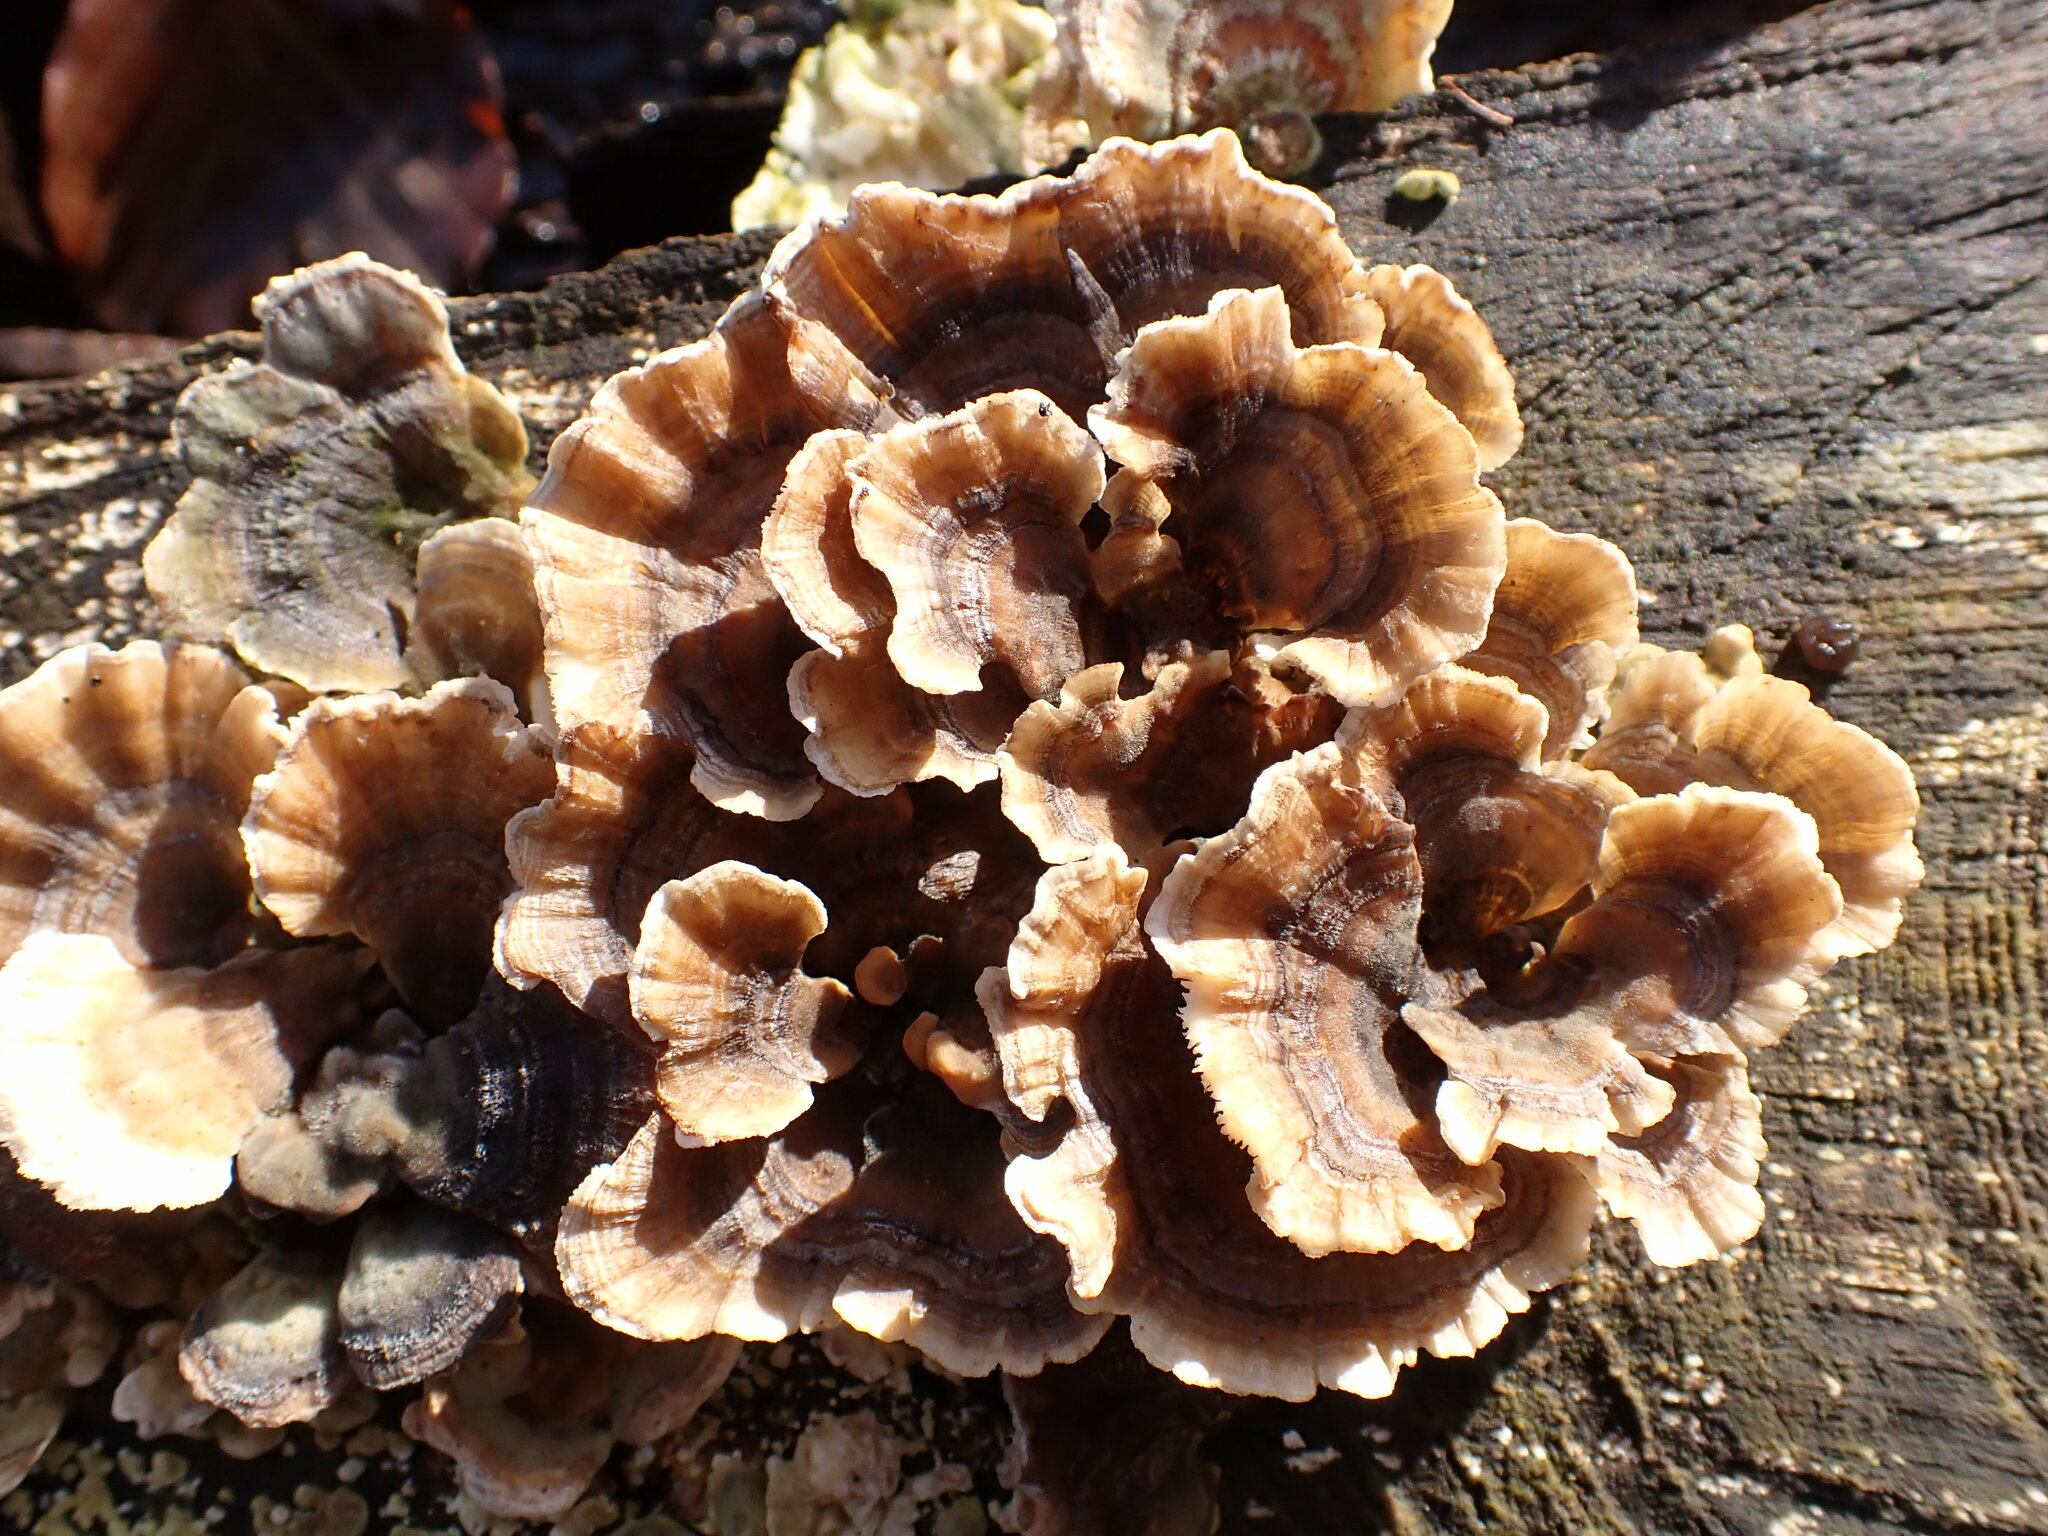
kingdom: Fungi
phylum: Basidiomycota
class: Agaricomycetes
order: Polyporales
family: Polyporaceae
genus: Trametes
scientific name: Trametes versicolor
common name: Turkeytail
